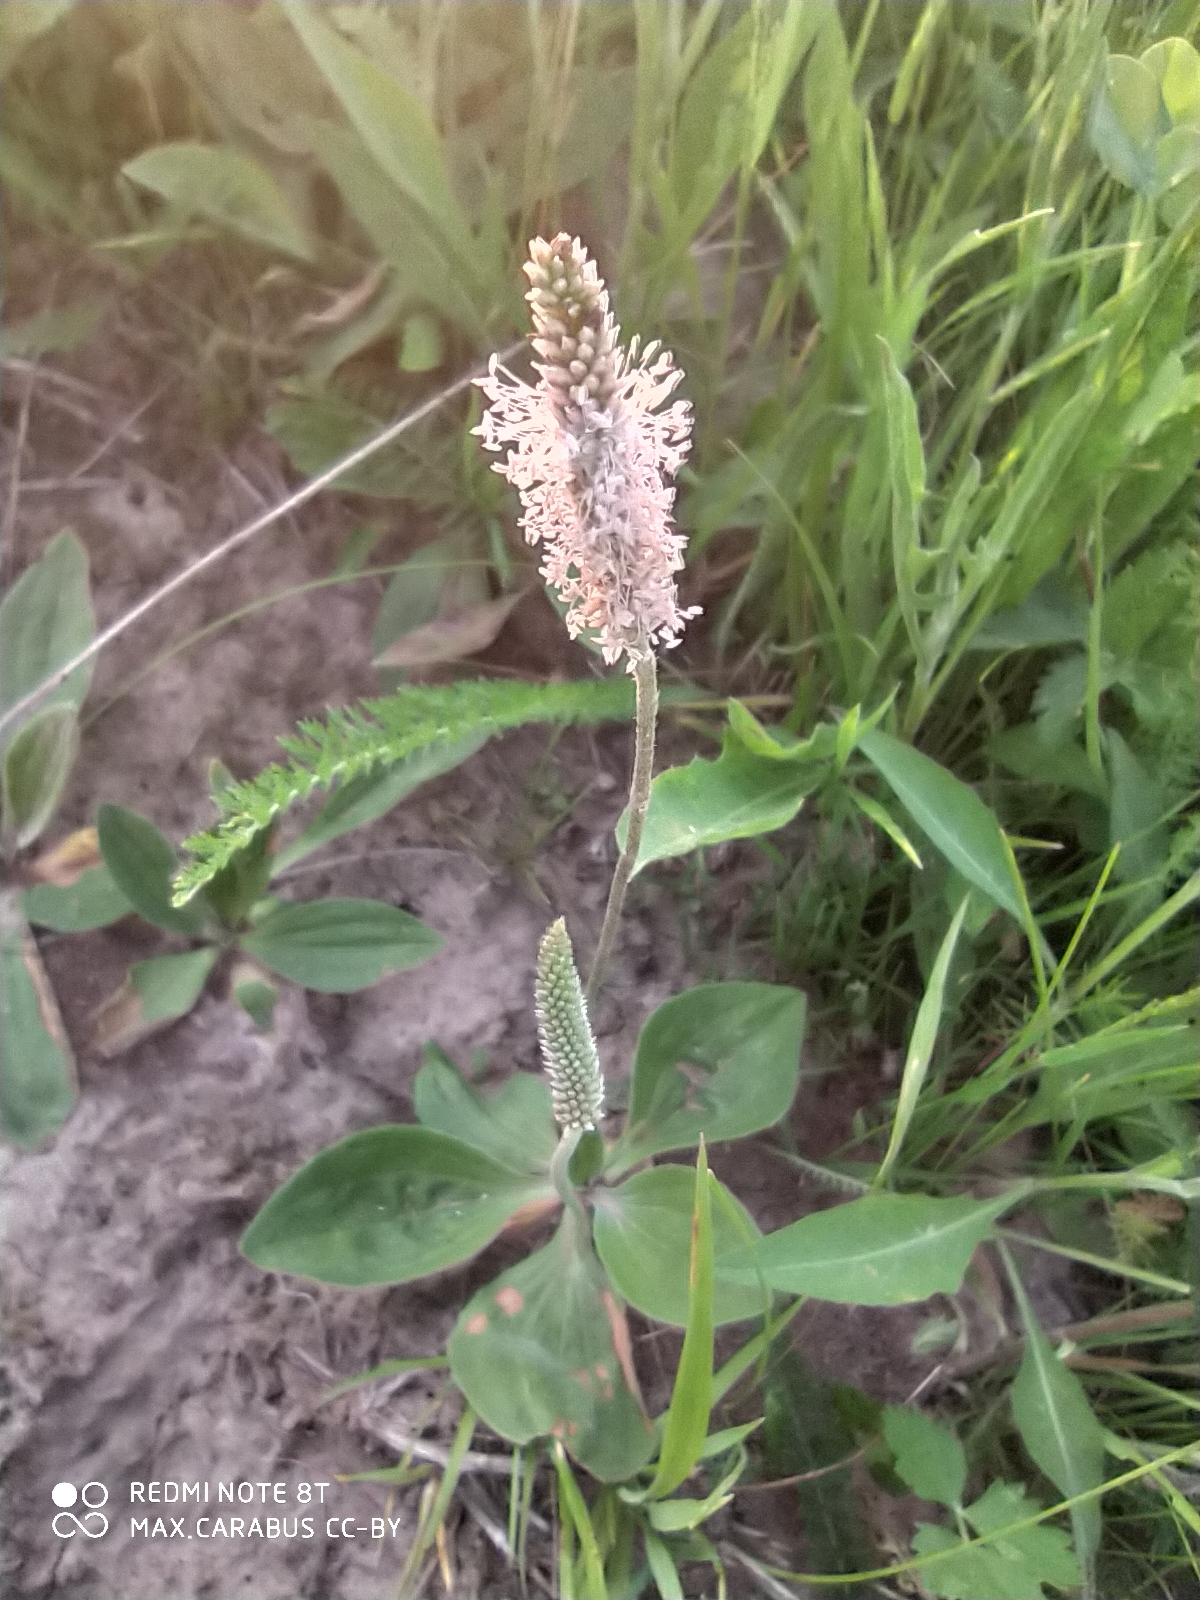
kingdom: Plantae
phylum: Tracheophyta
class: Magnoliopsida
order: Lamiales
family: Plantaginaceae
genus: Plantago
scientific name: Plantago media
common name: Hoary plantain
